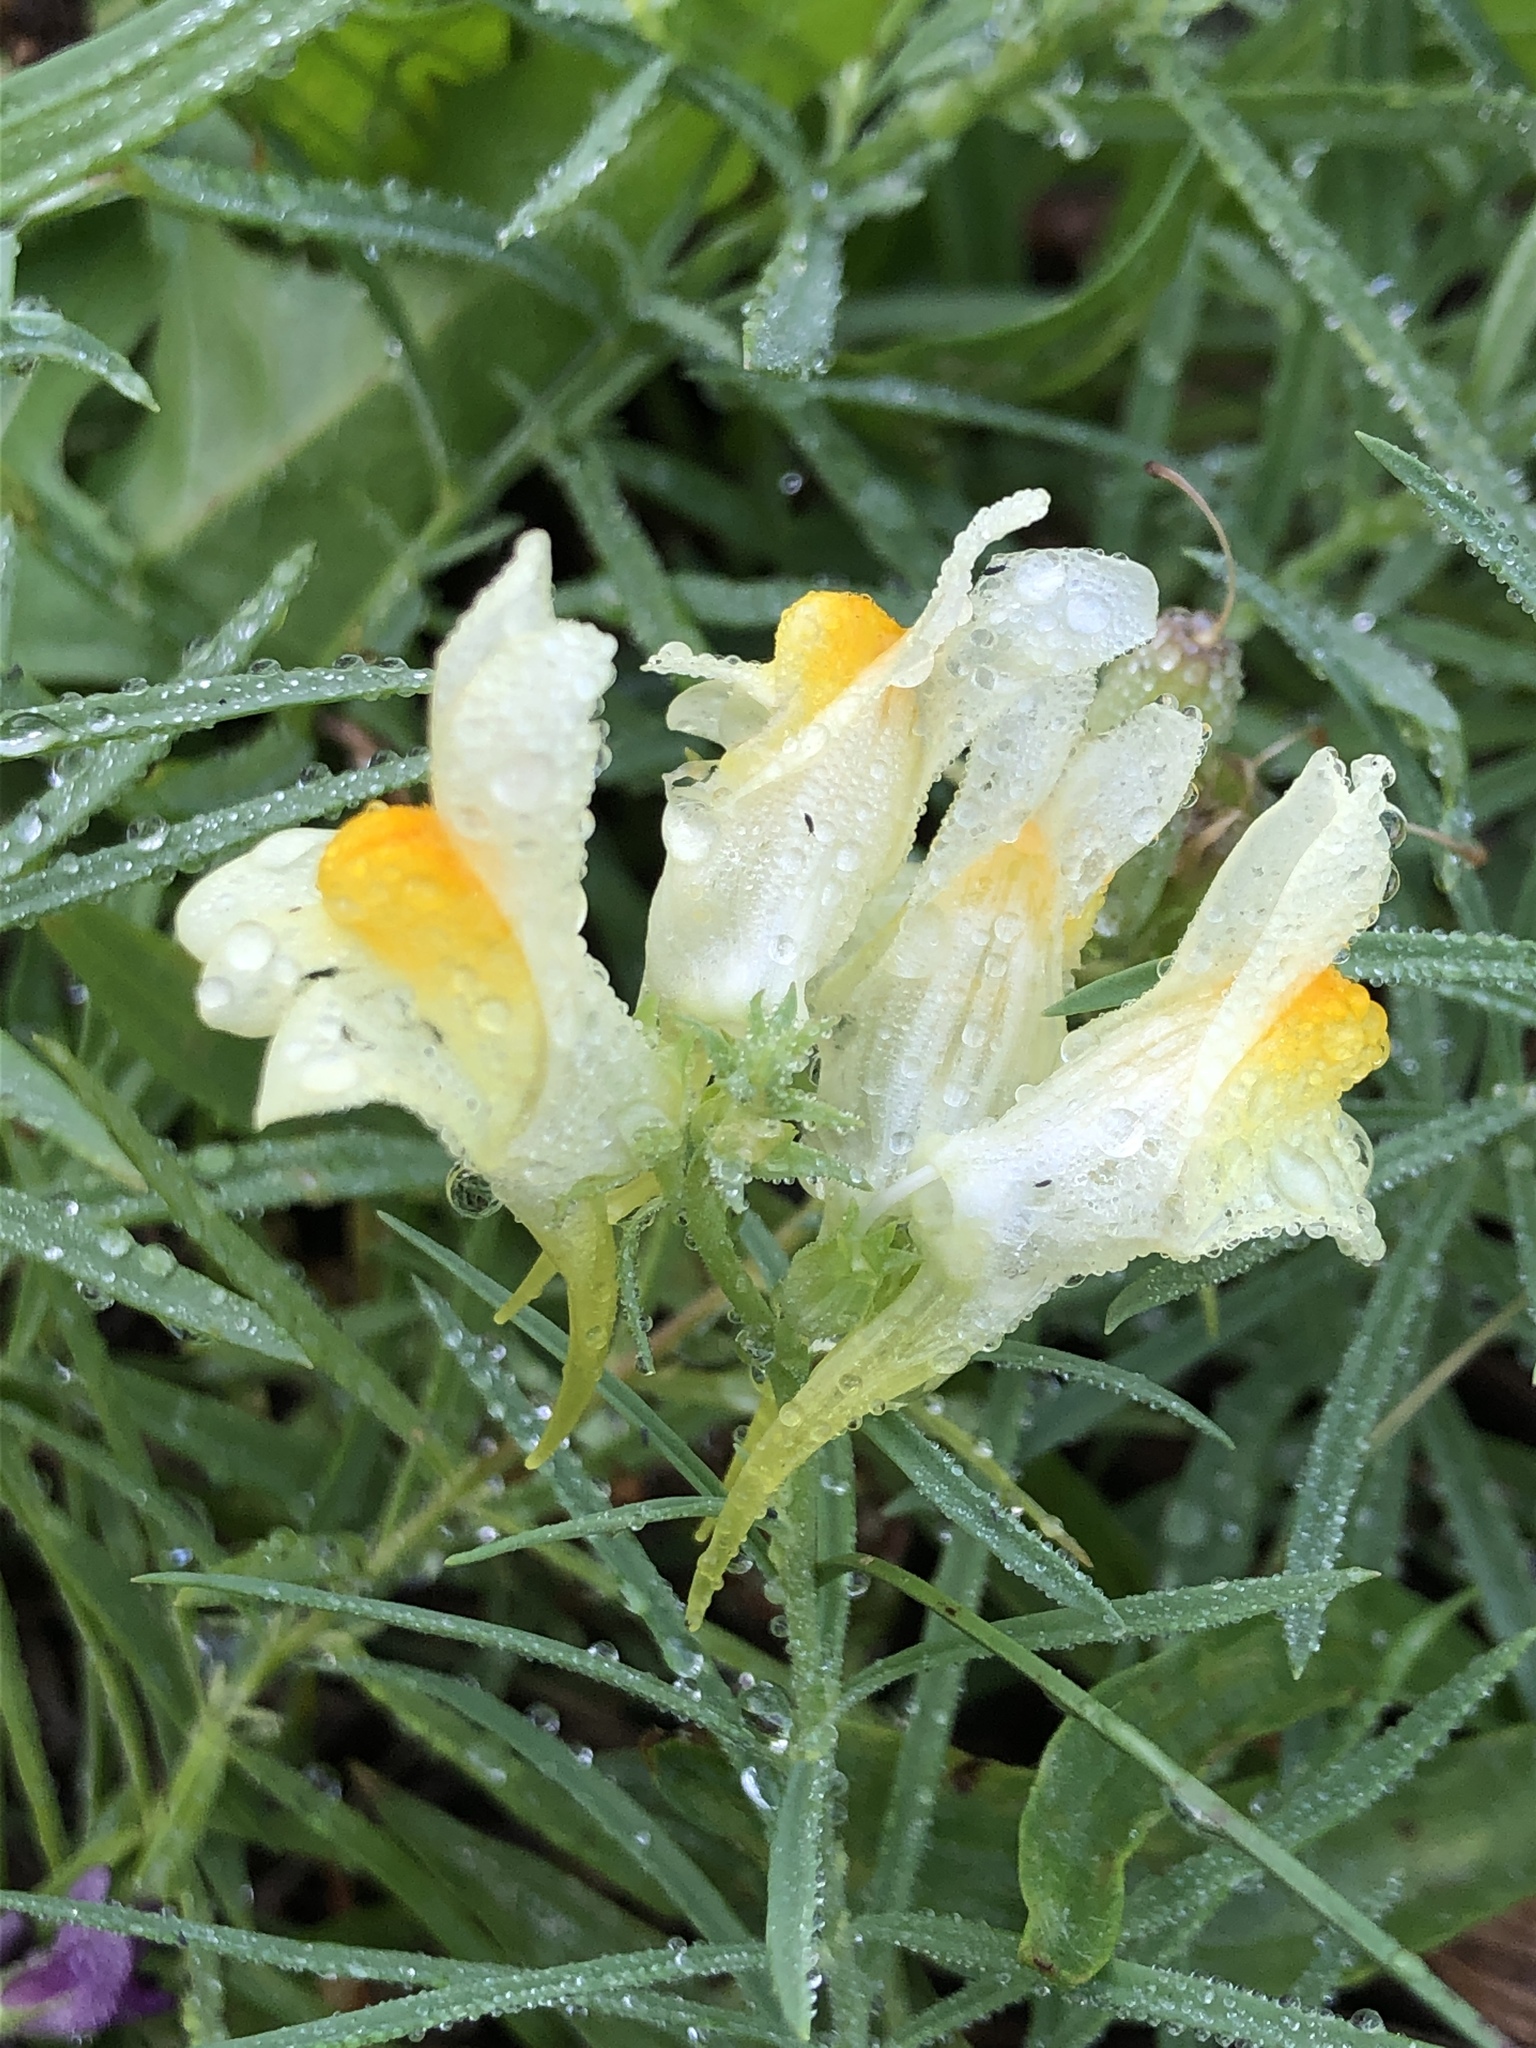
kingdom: Plantae
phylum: Tracheophyta
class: Magnoliopsida
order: Lamiales
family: Plantaginaceae
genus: Linaria
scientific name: Linaria vulgaris
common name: Butter and eggs
